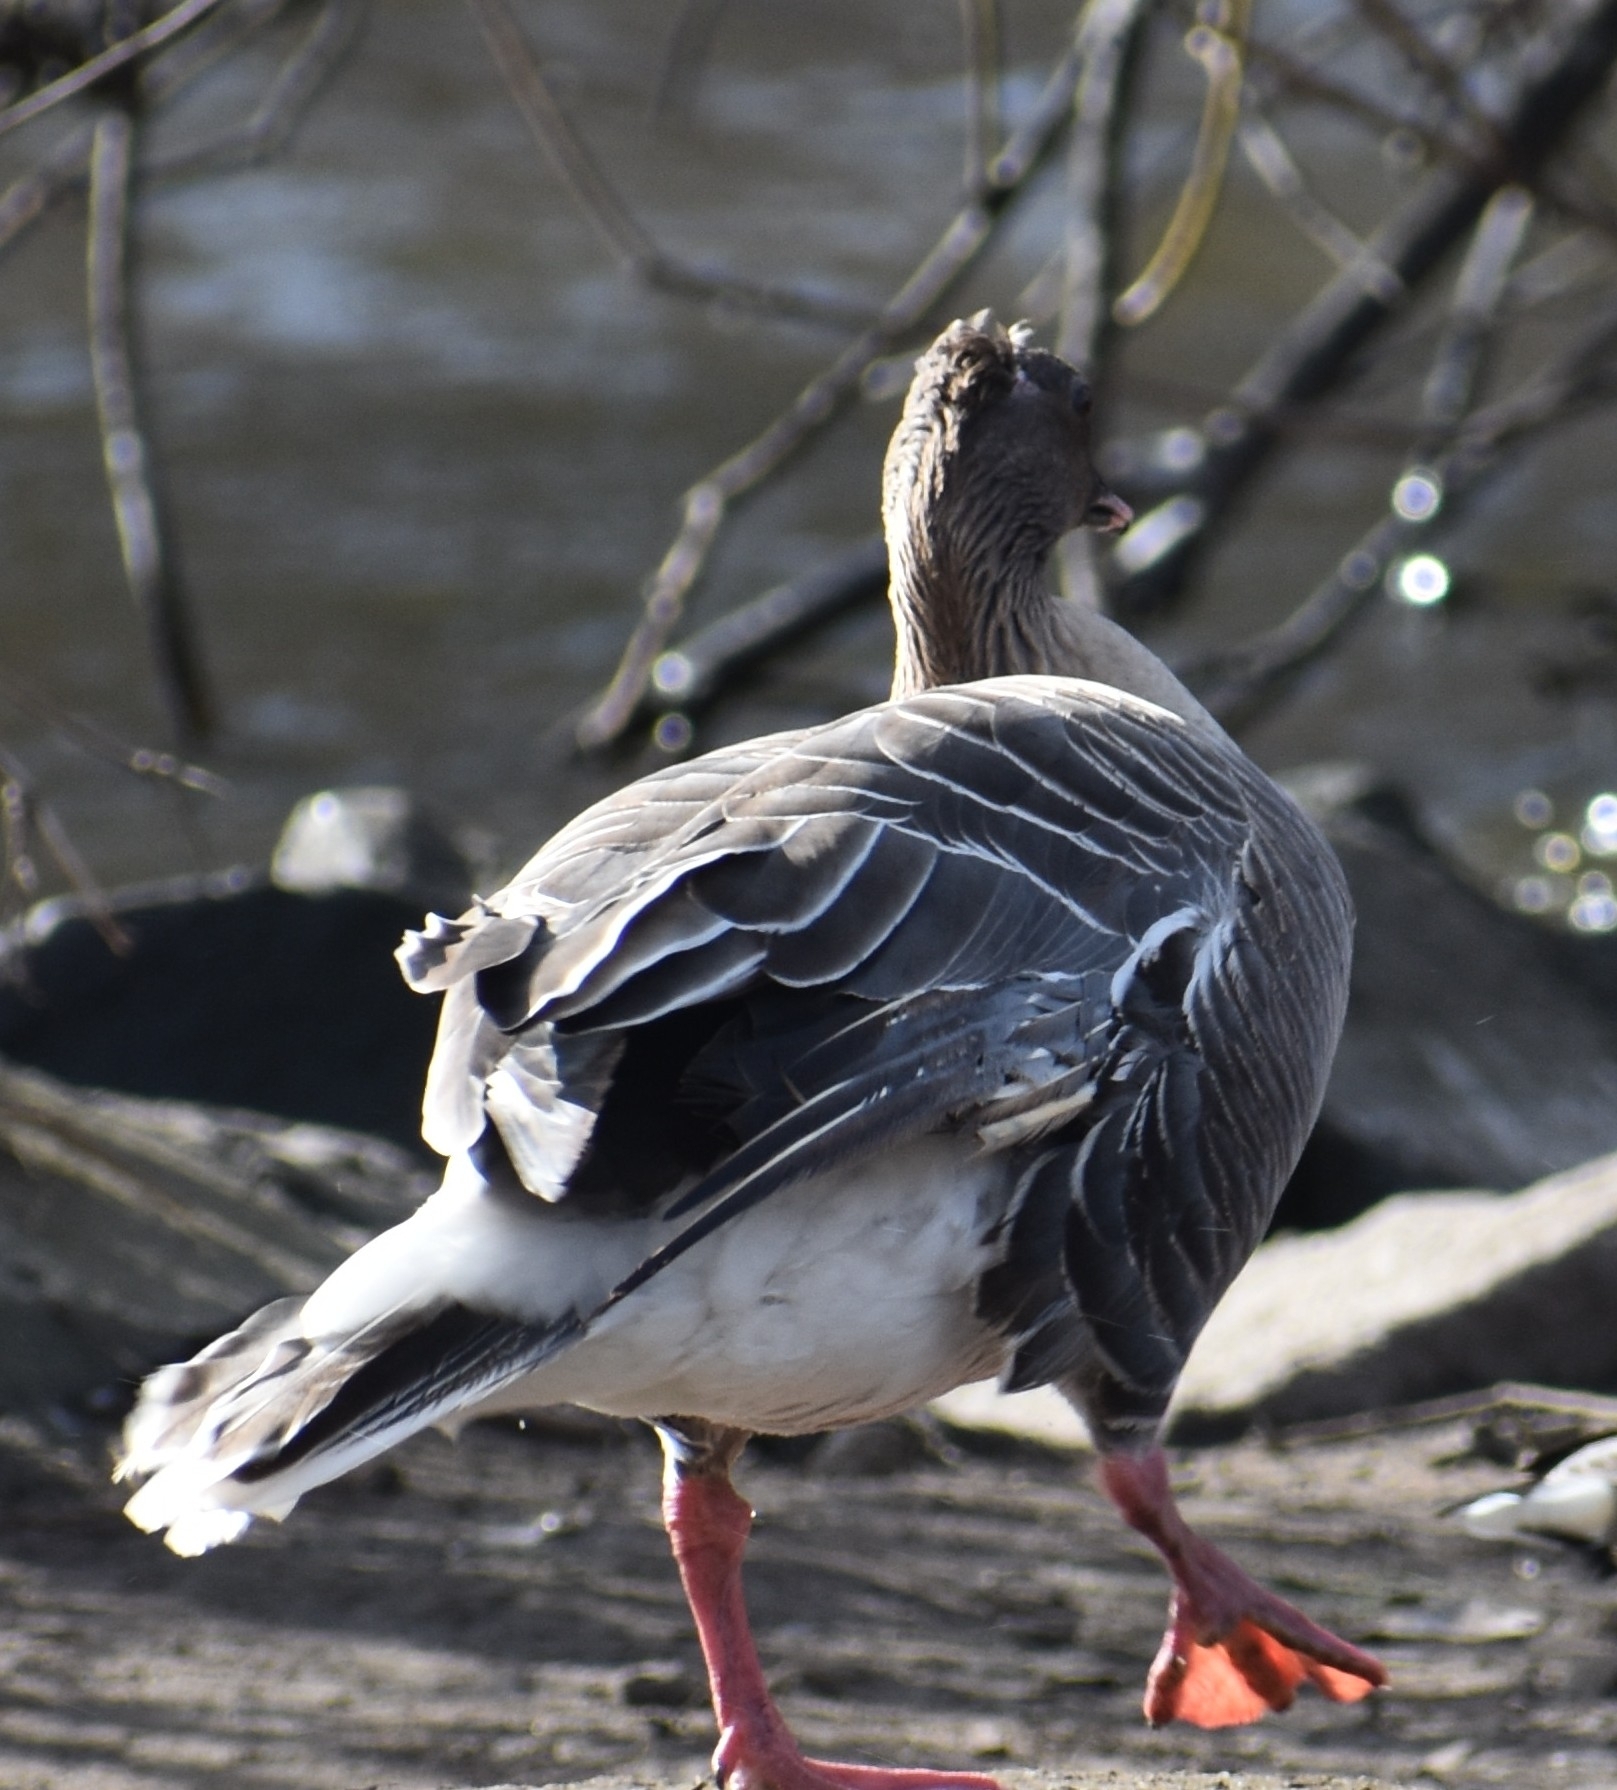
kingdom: Animalia
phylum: Chordata
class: Aves
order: Anseriformes
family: Anatidae
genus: Anser
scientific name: Anser brachyrhynchus
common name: Pink-footed goose
